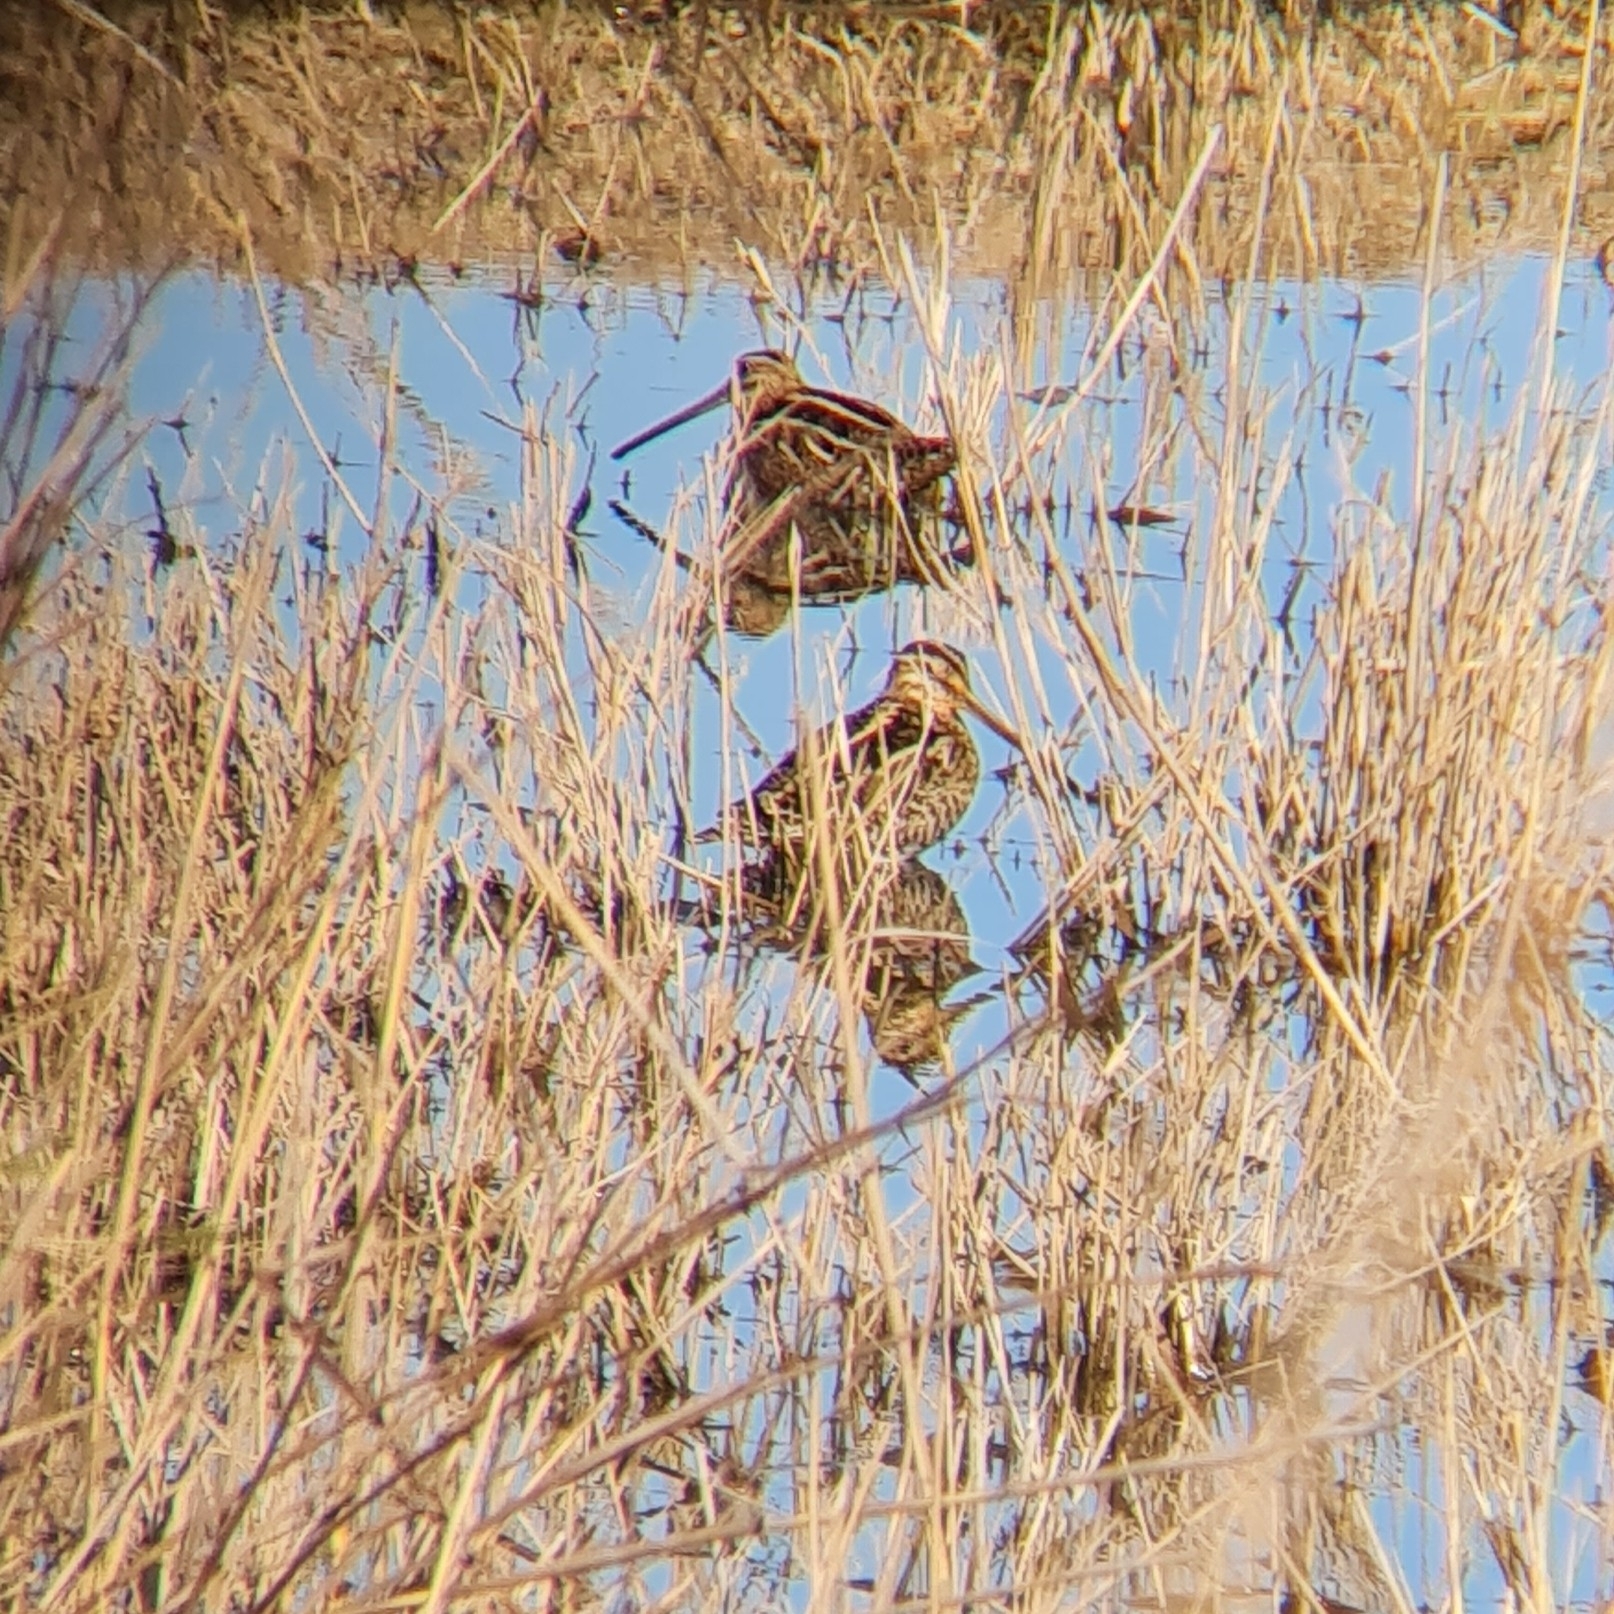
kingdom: Animalia
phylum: Chordata
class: Aves
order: Charadriiformes
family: Scolopacidae
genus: Gallinago
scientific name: Gallinago gallinago
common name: Common snipe
